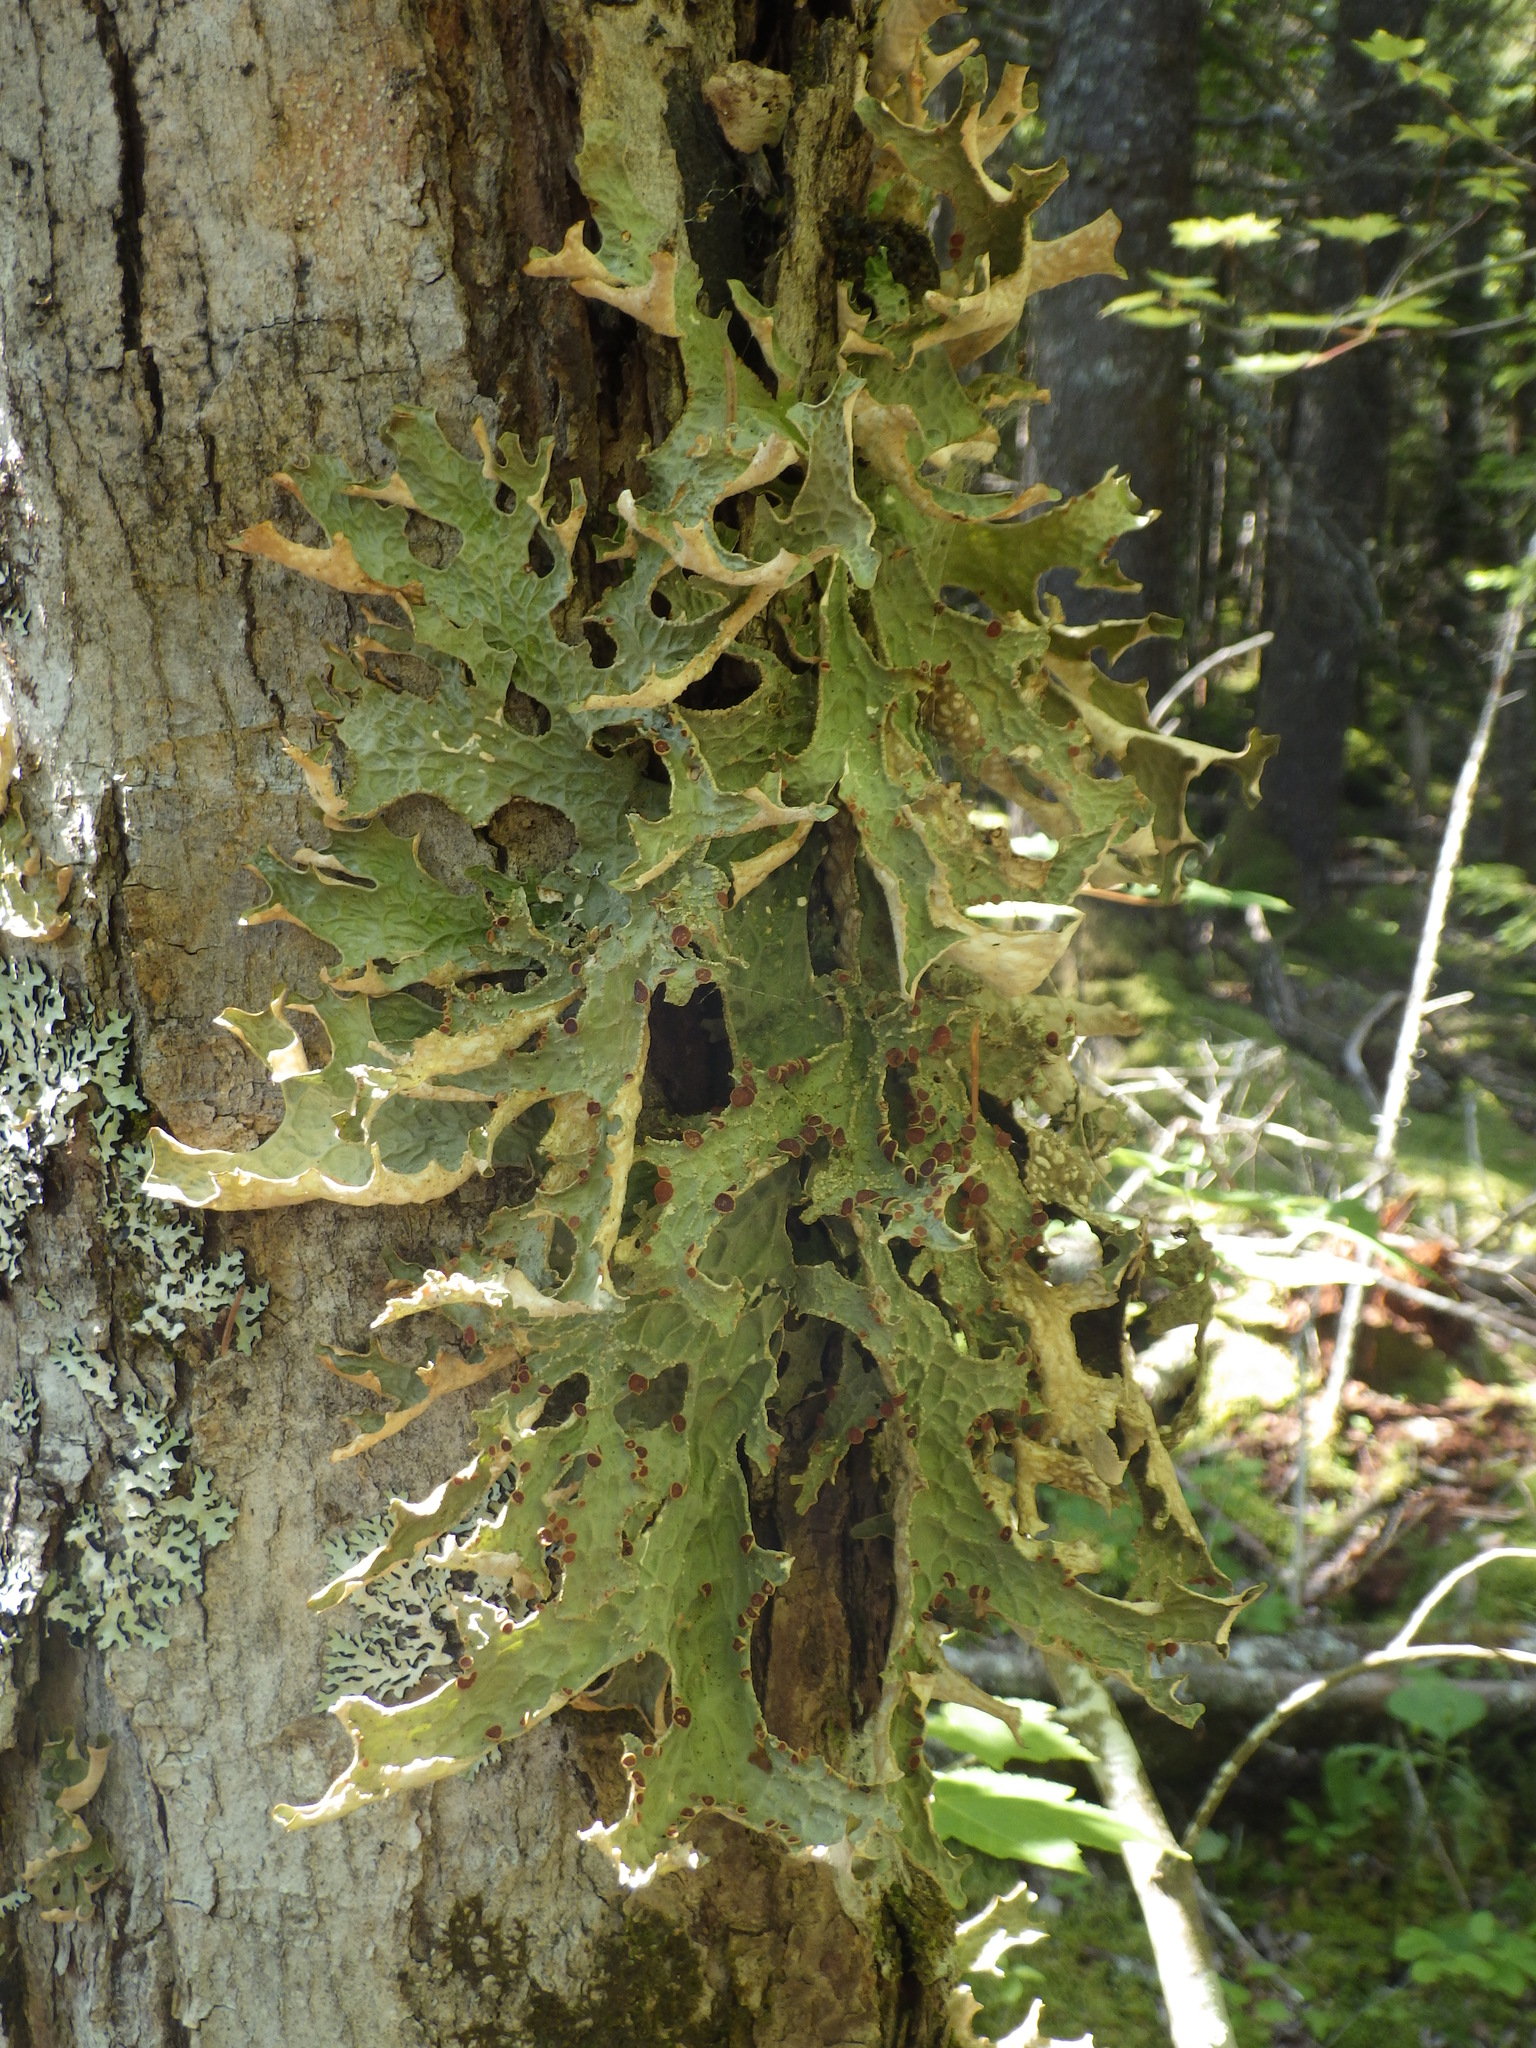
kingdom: Fungi
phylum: Ascomycota
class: Lecanoromycetes
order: Peltigerales
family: Lobariaceae
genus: Lobaria
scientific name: Lobaria pulmonaria
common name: Lungwort
